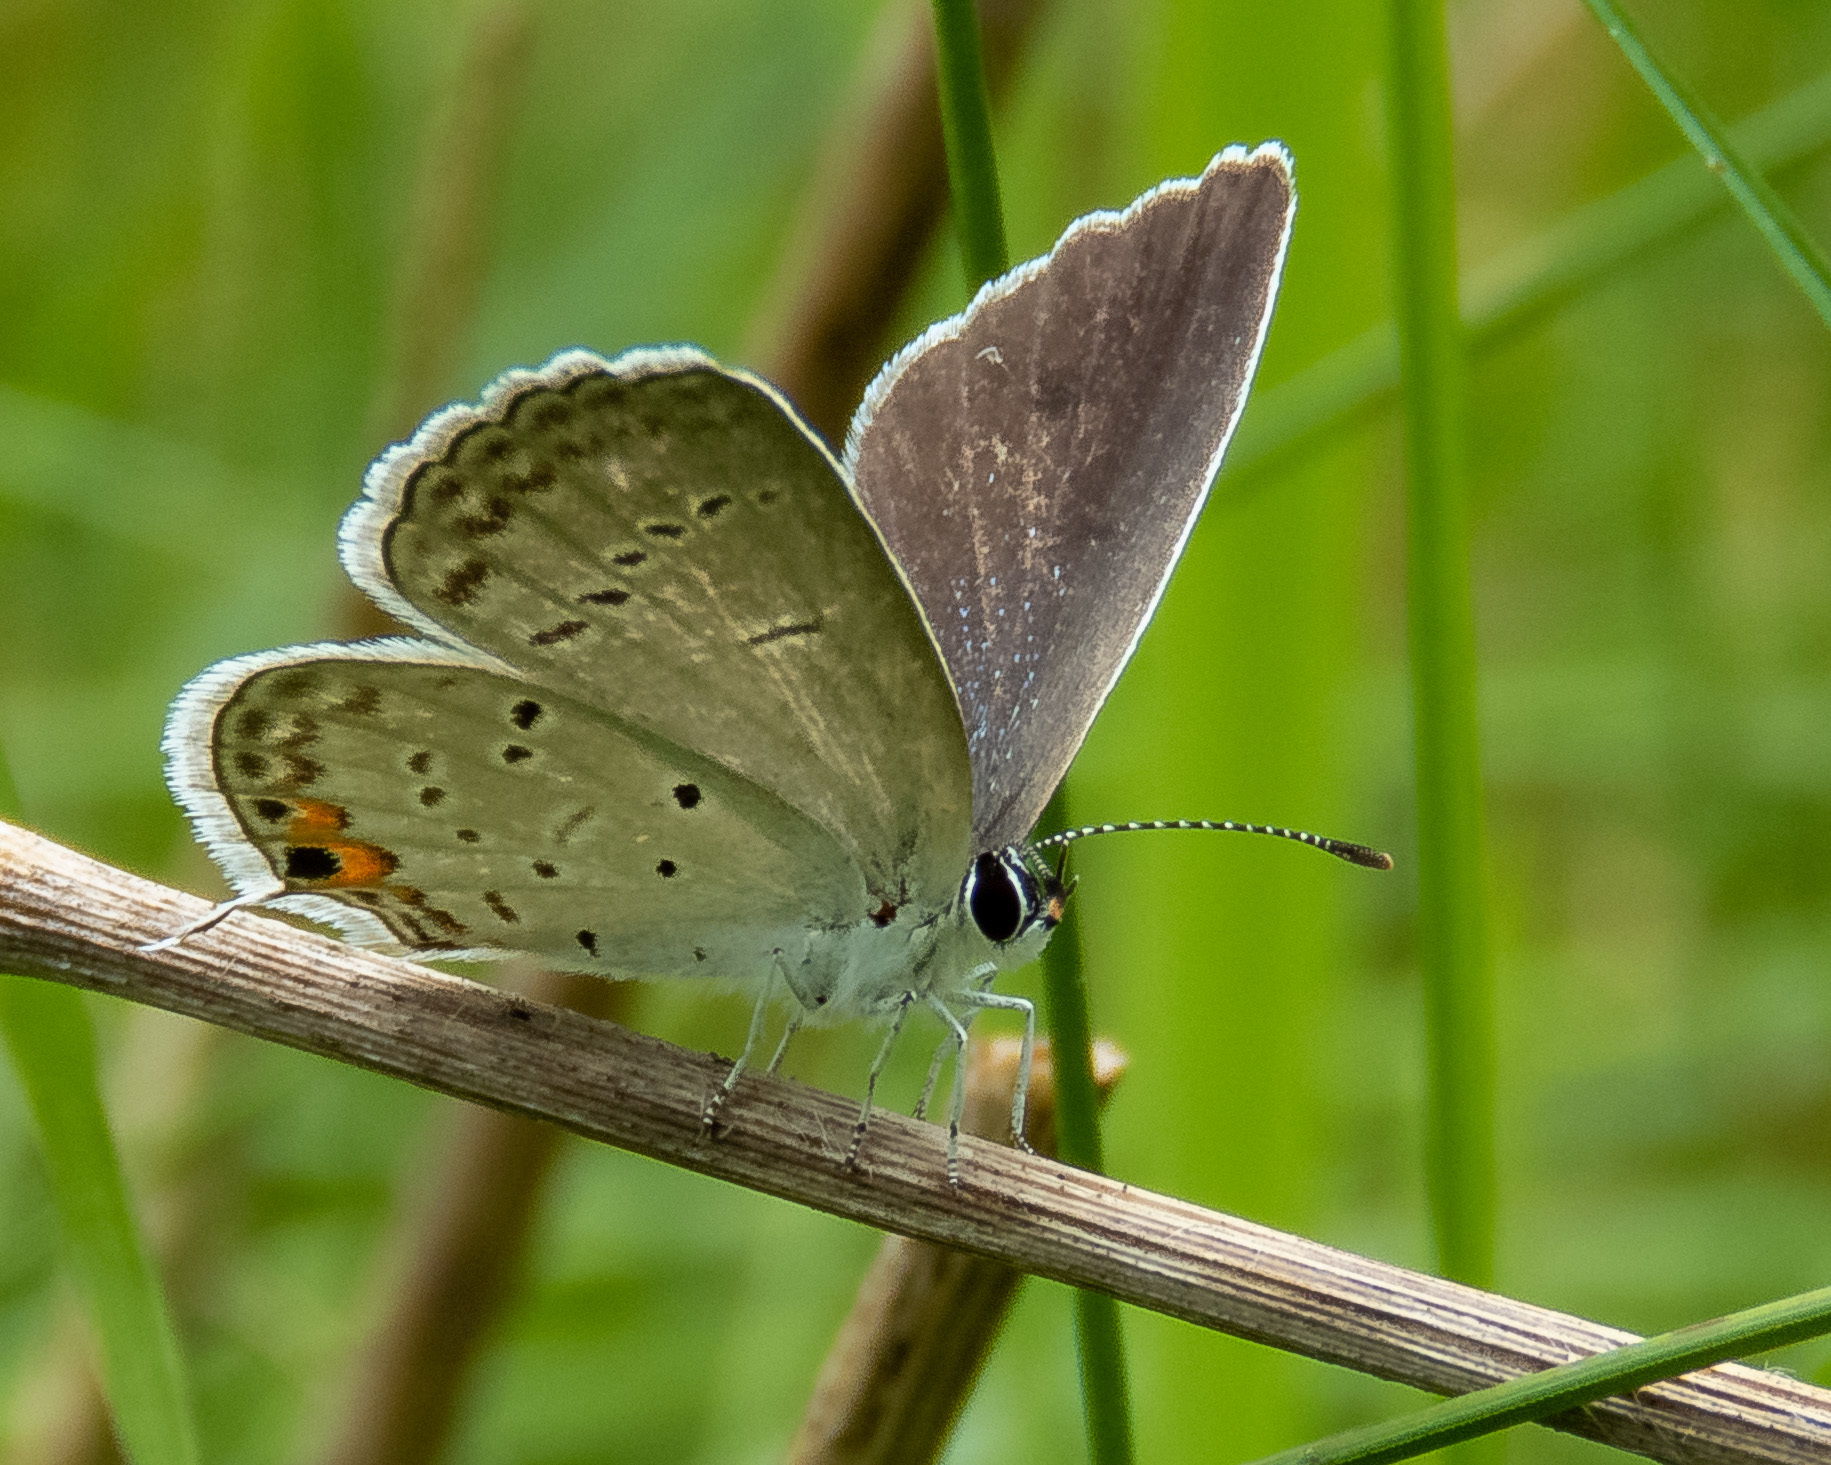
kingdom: Animalia
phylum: Arthropoda
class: Insecta
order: Lepidoptera
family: Lycaenidae
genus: Elkalyce
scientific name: Elkalyce comyntas
